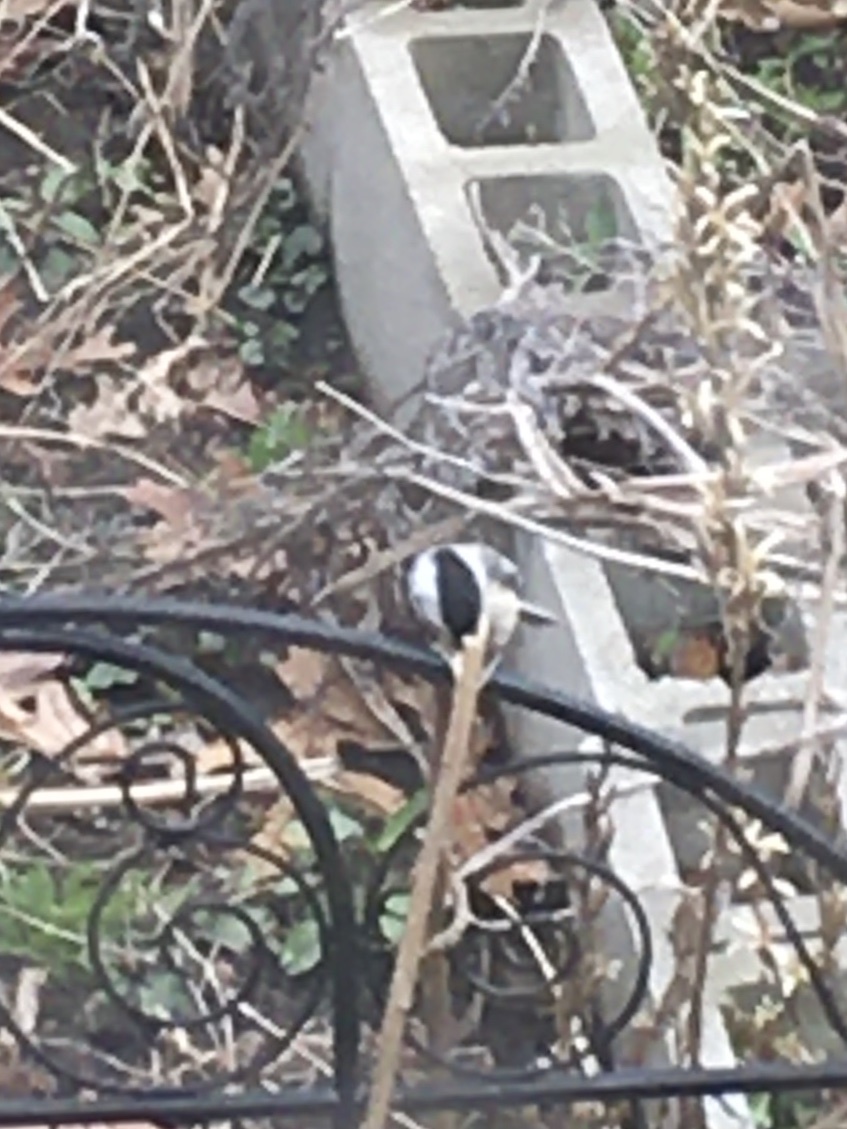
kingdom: Animalia
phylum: Chordata
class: Aves
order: Passeriformes
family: Paridae
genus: Poecile
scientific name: Poecile atricapillus
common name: Black-capped chickadee
